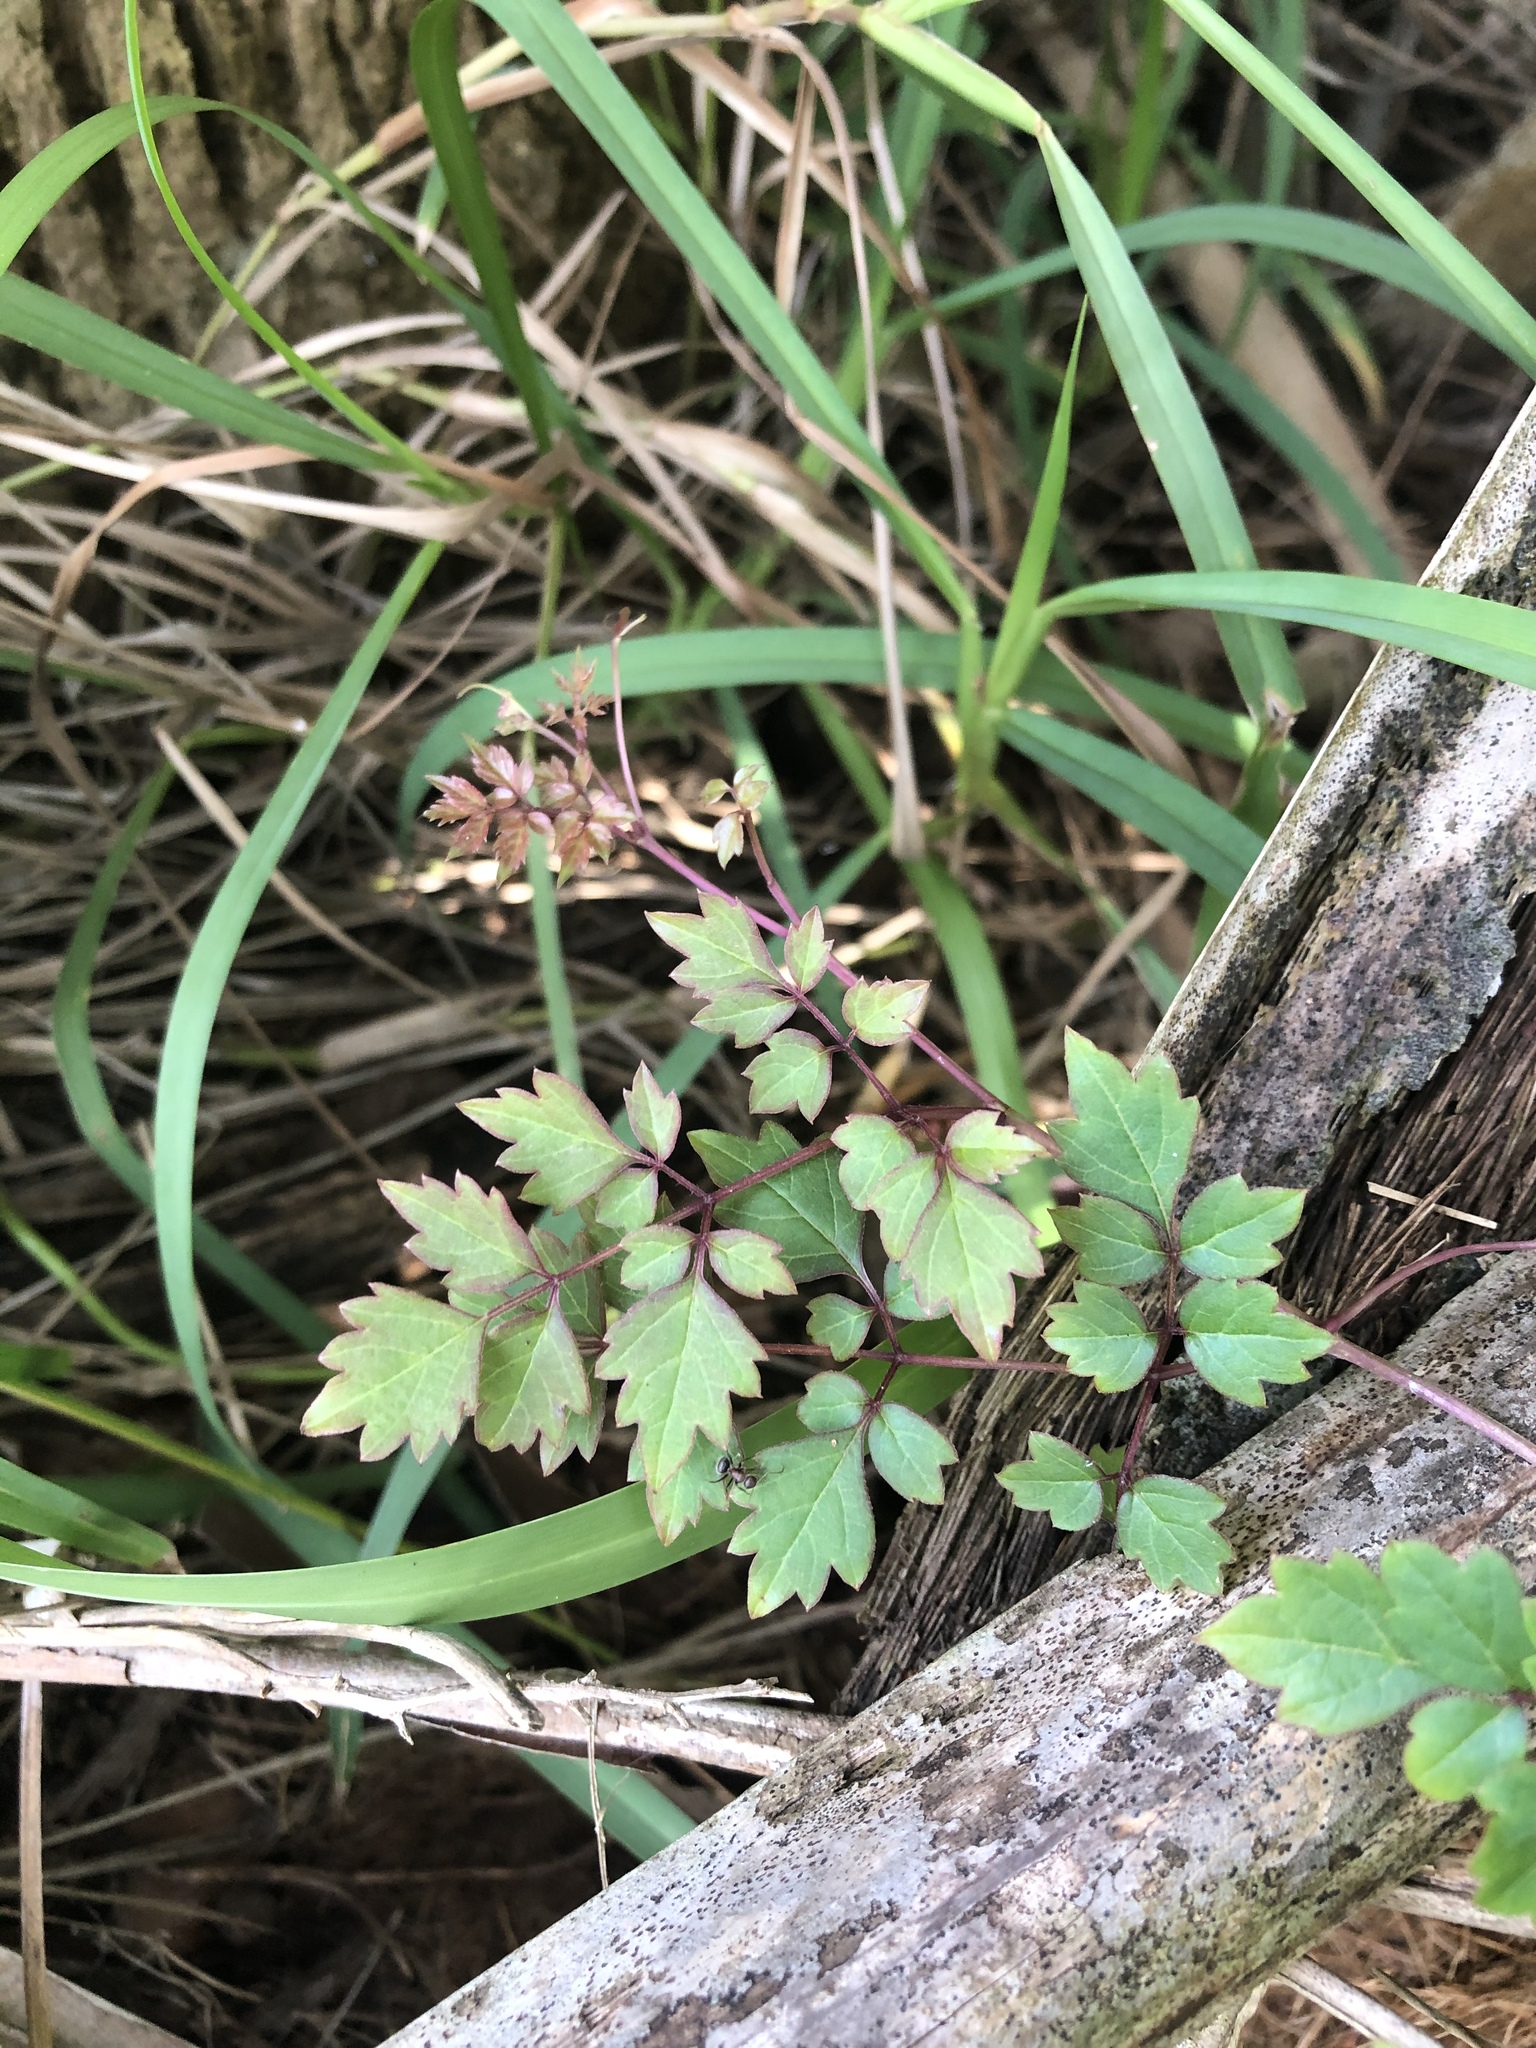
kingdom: Plantae
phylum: Tracheophyta
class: Magnoliopsida
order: Vitales
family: Vitaceae
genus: Nekemias
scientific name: Nekemias arborea
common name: Peppervine
